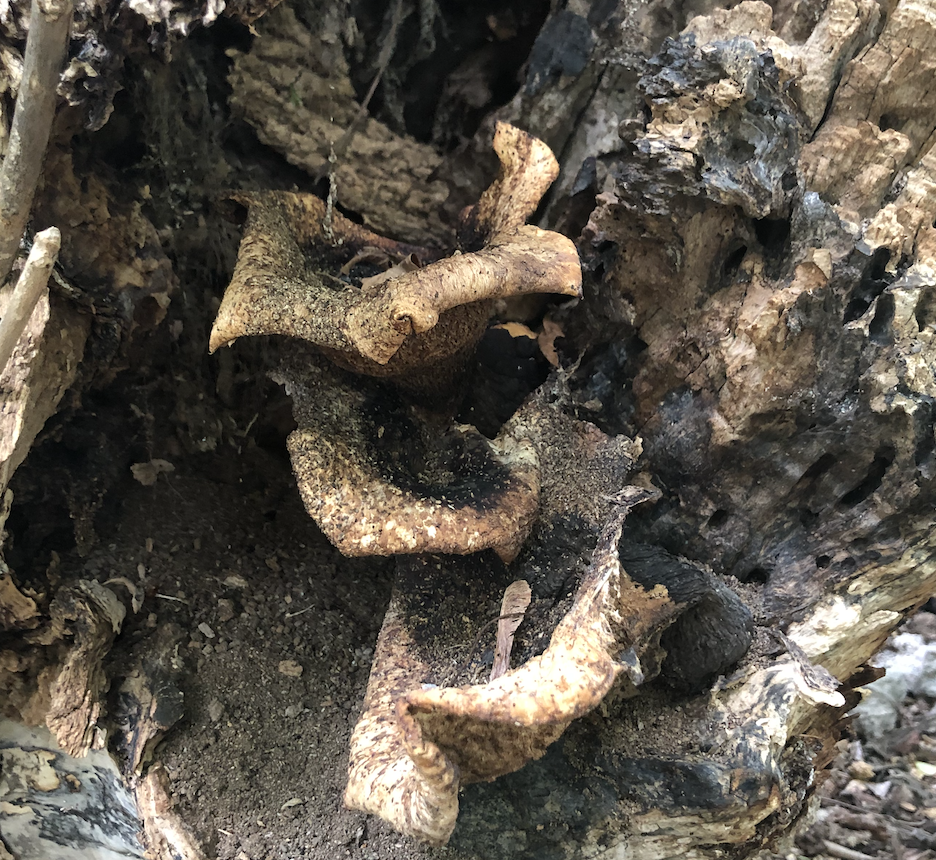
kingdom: Fungi
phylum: Basidiomycota
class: Agaricomycetes
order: Polyporales
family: Polyporaceae
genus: Cerioporus
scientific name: Cerioporus squamosus
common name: Dryad's saddle
